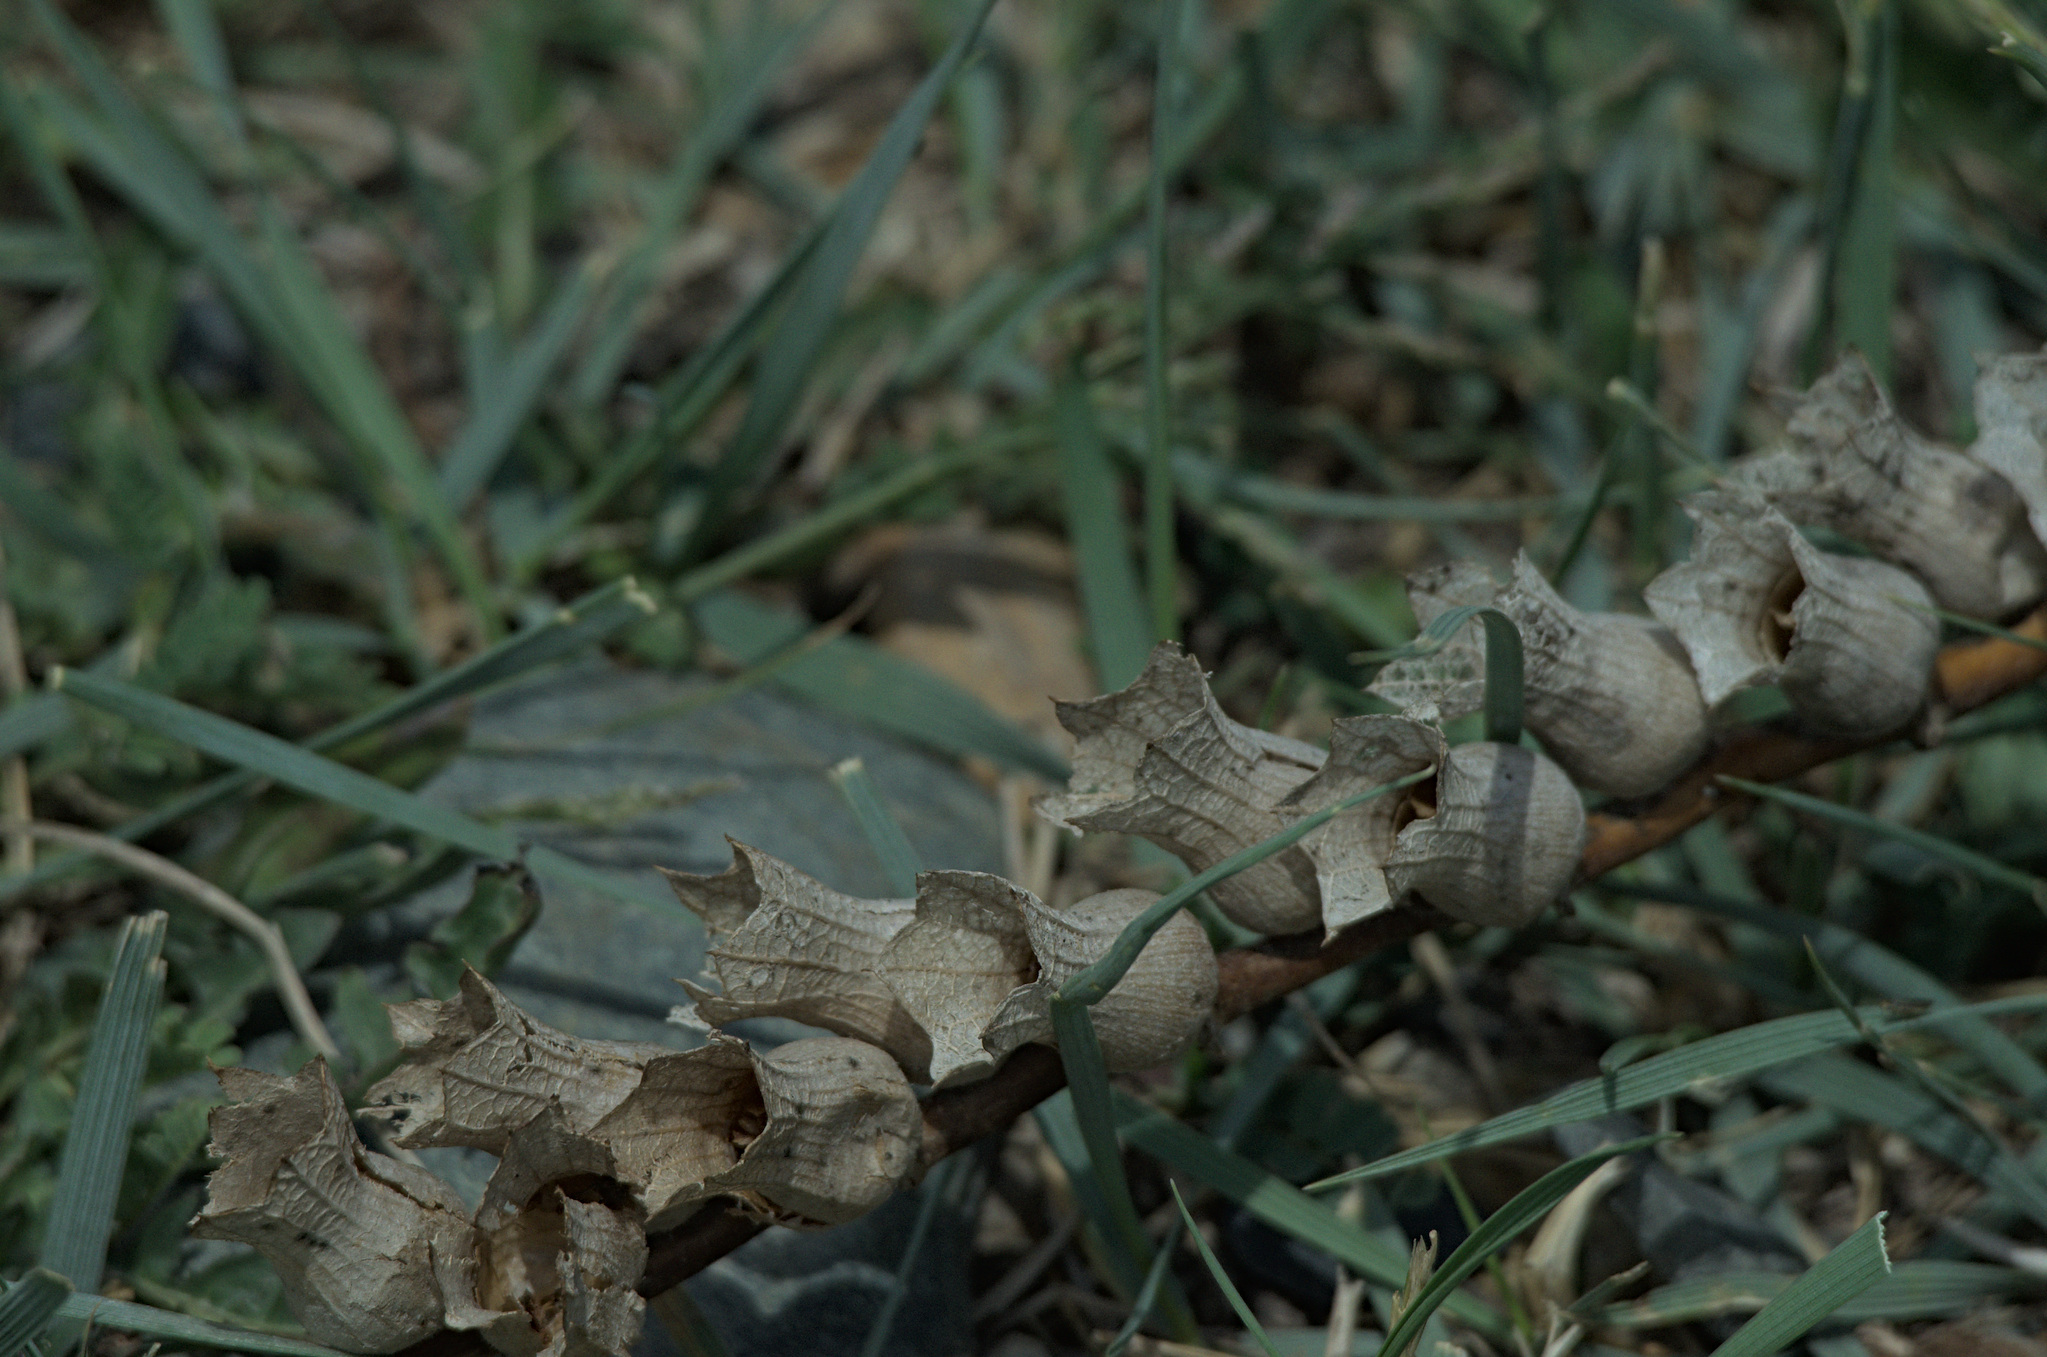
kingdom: Plantae
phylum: Tracheophyta
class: Magnoliopsida
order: Solanales
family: Solanaceae
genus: Hyoscyamus
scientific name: Hyoscyamus niger
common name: Henbane
